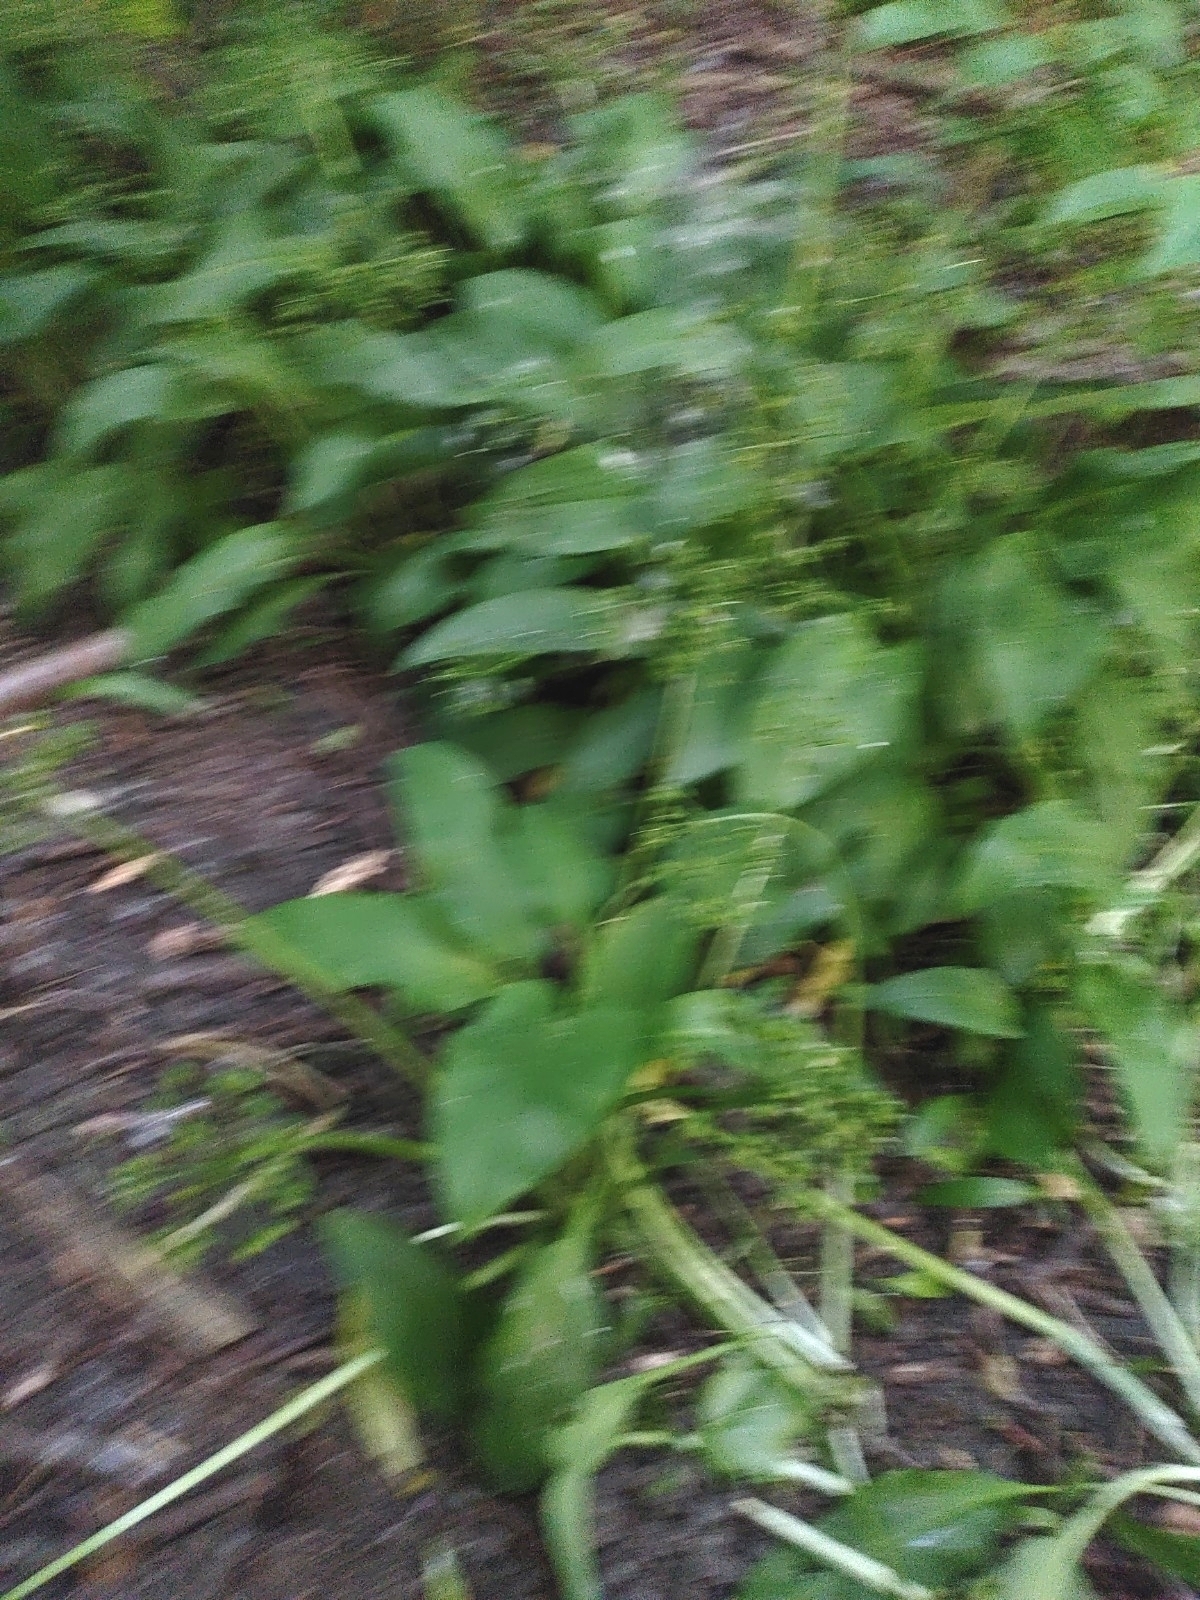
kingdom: Plantae
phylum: Tracheophyta
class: Liliopsida
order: Asparagales
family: Amaryllidaceae
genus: Allium
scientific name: Allium ursinum
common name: Ramsons
